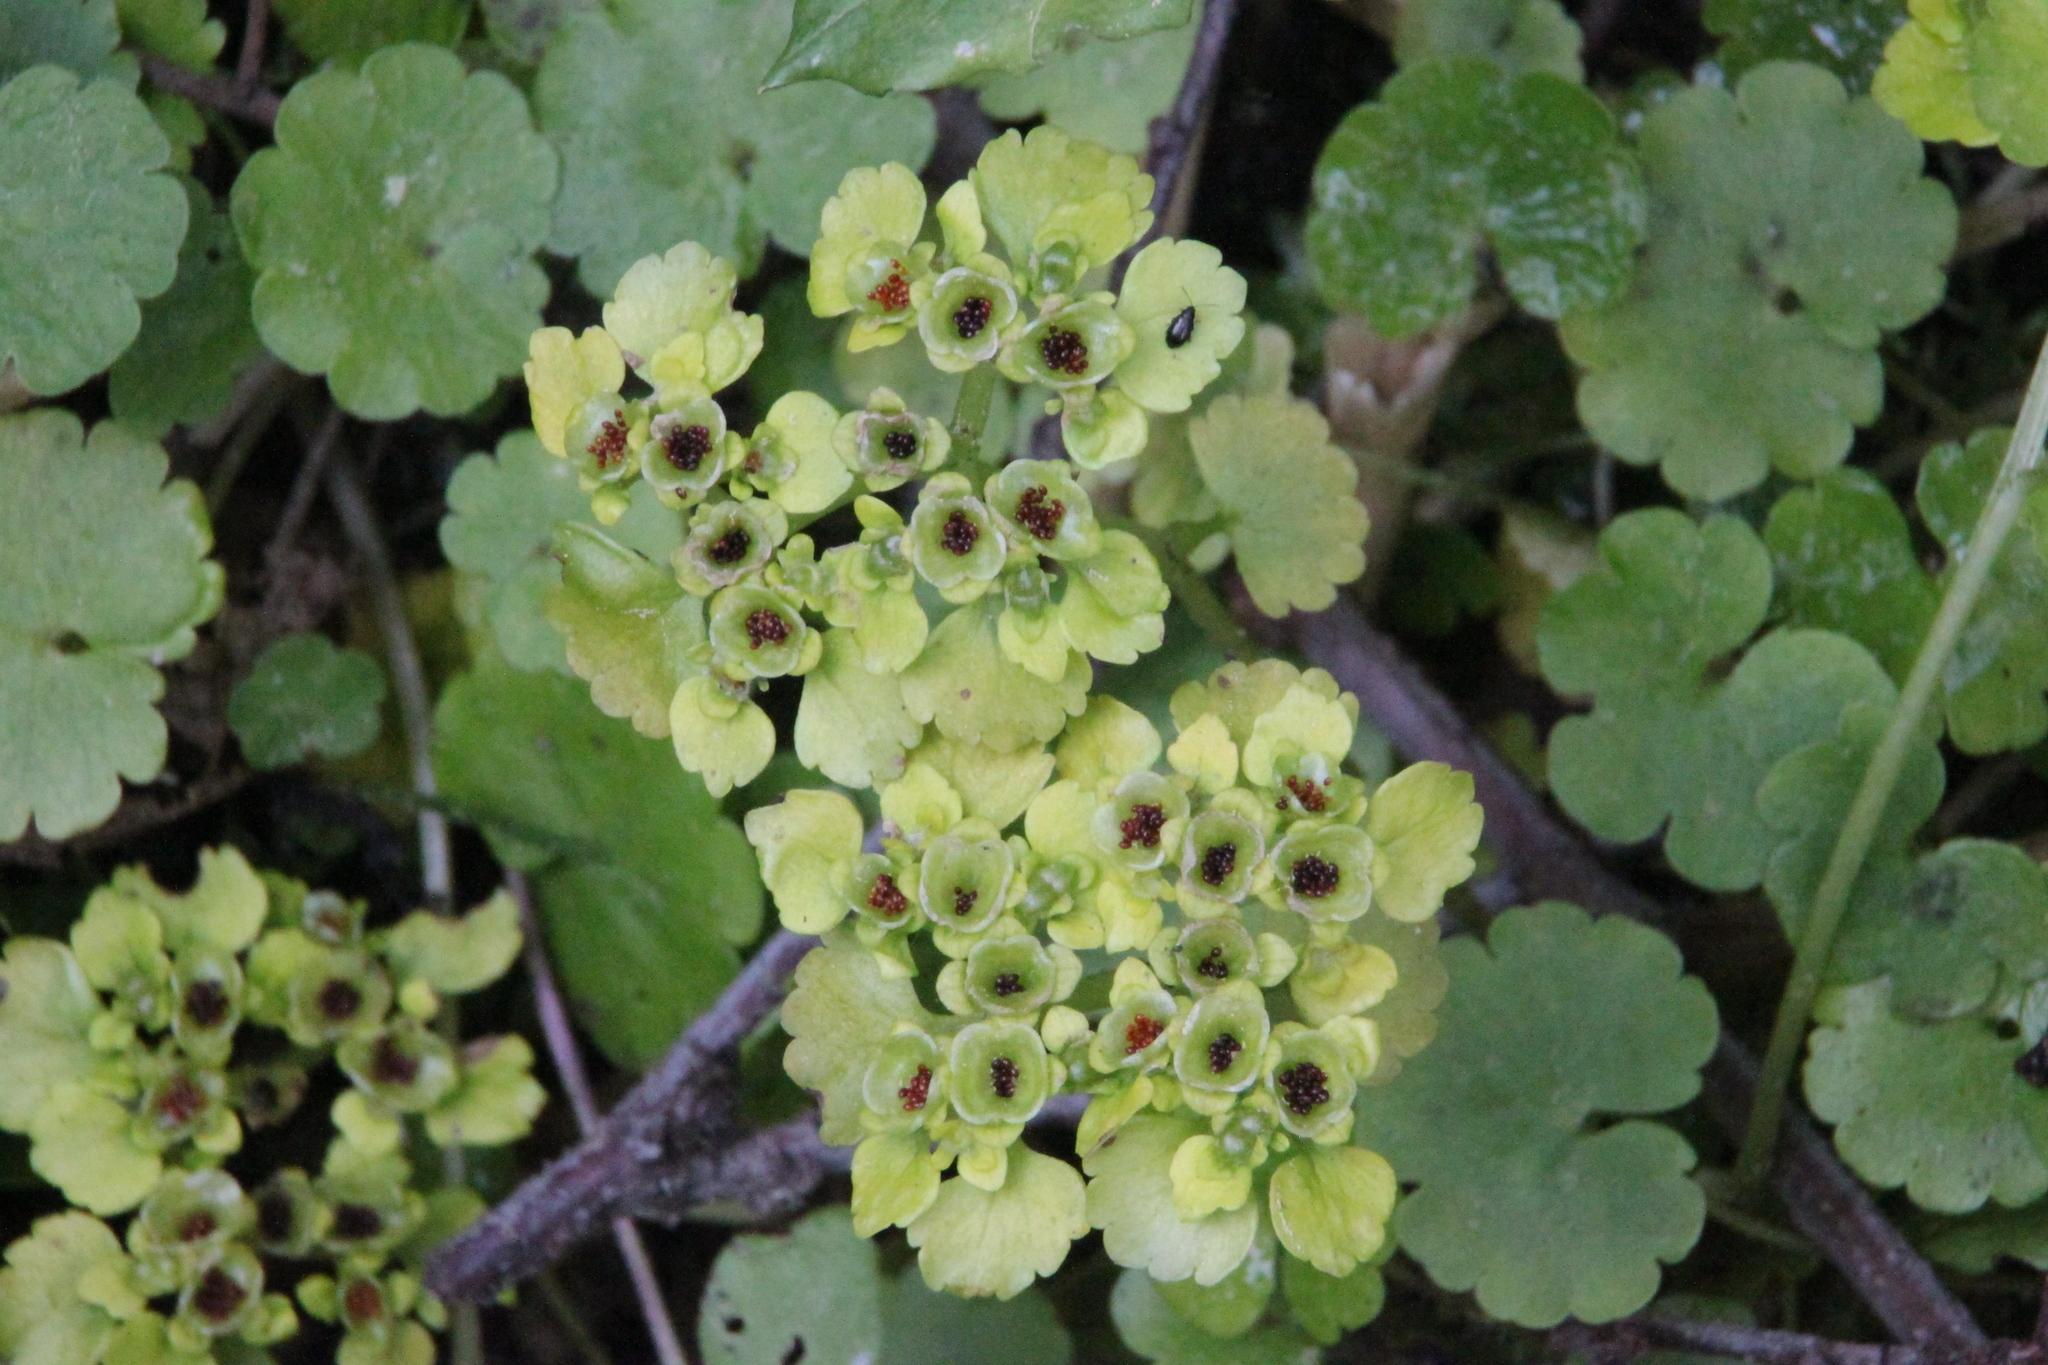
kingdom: Plantae
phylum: Tracheophyta
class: Magnoliopsida
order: Saxifragales
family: Saxifragaceae
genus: Chrysosplenium
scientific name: Chrysosplenium alternifolium
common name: Alternate-leaved golden-saxifrage
